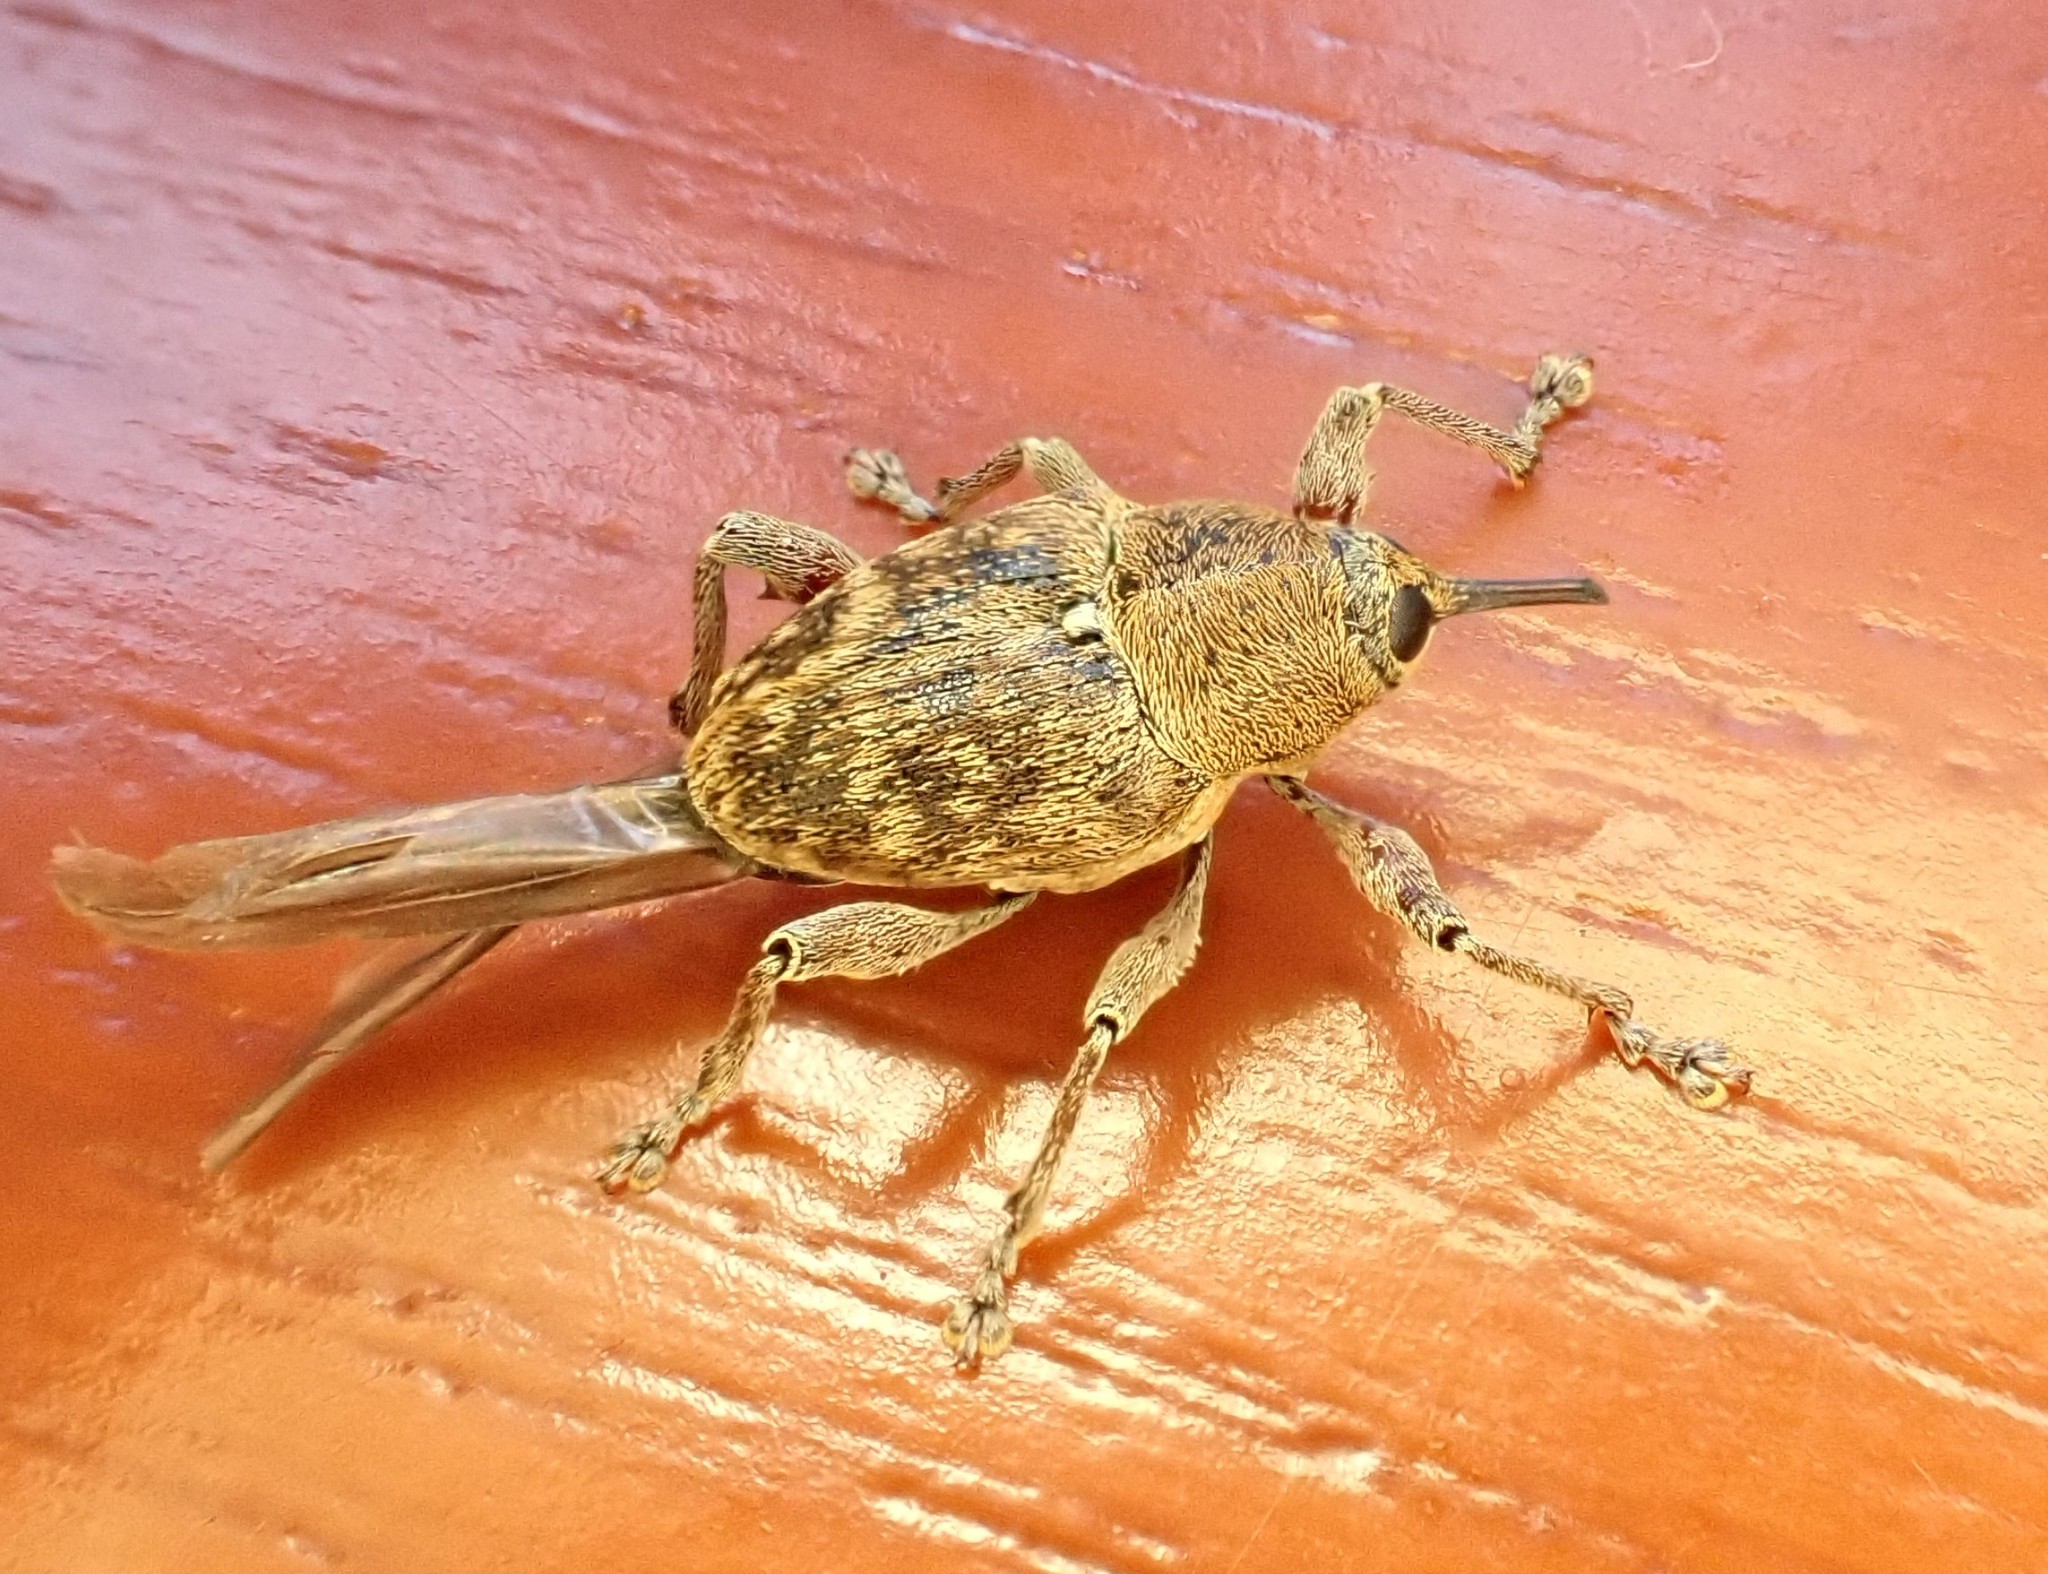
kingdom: Animalia
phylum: Arthropoda
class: Insecta
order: Coleoptera
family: Curculionidae
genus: Curculio
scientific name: Curculio
